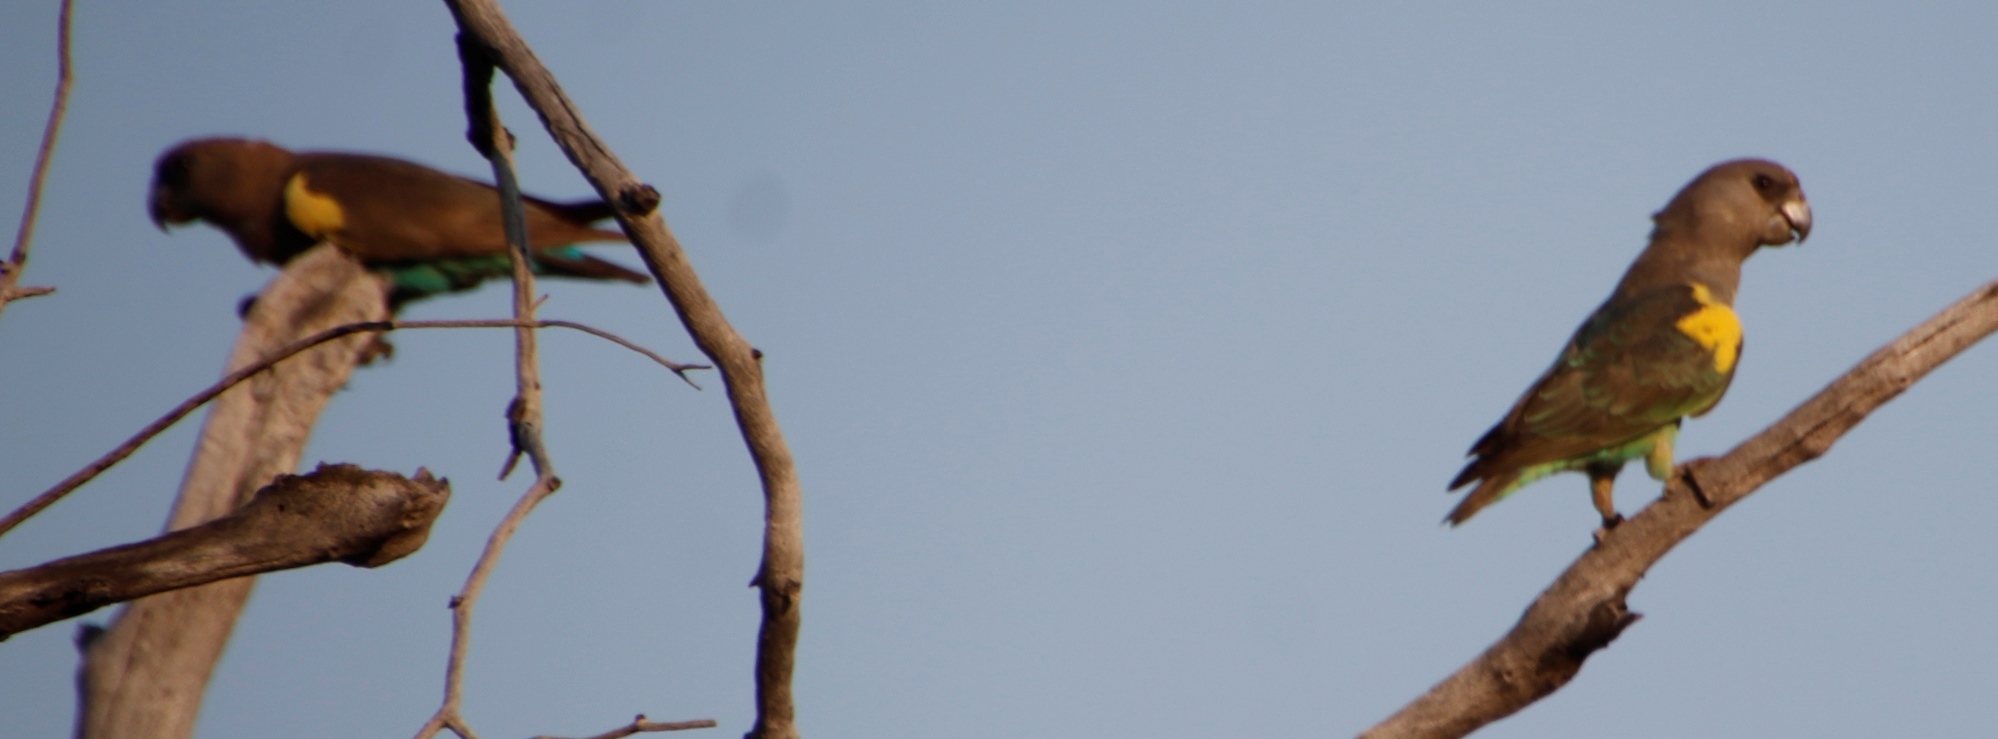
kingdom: Animalia
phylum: Chordata
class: Aves
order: Psittaciformes
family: Psittacidae
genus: Poicephalus
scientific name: Poicephalus meyeri
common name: Meyer's parrot
